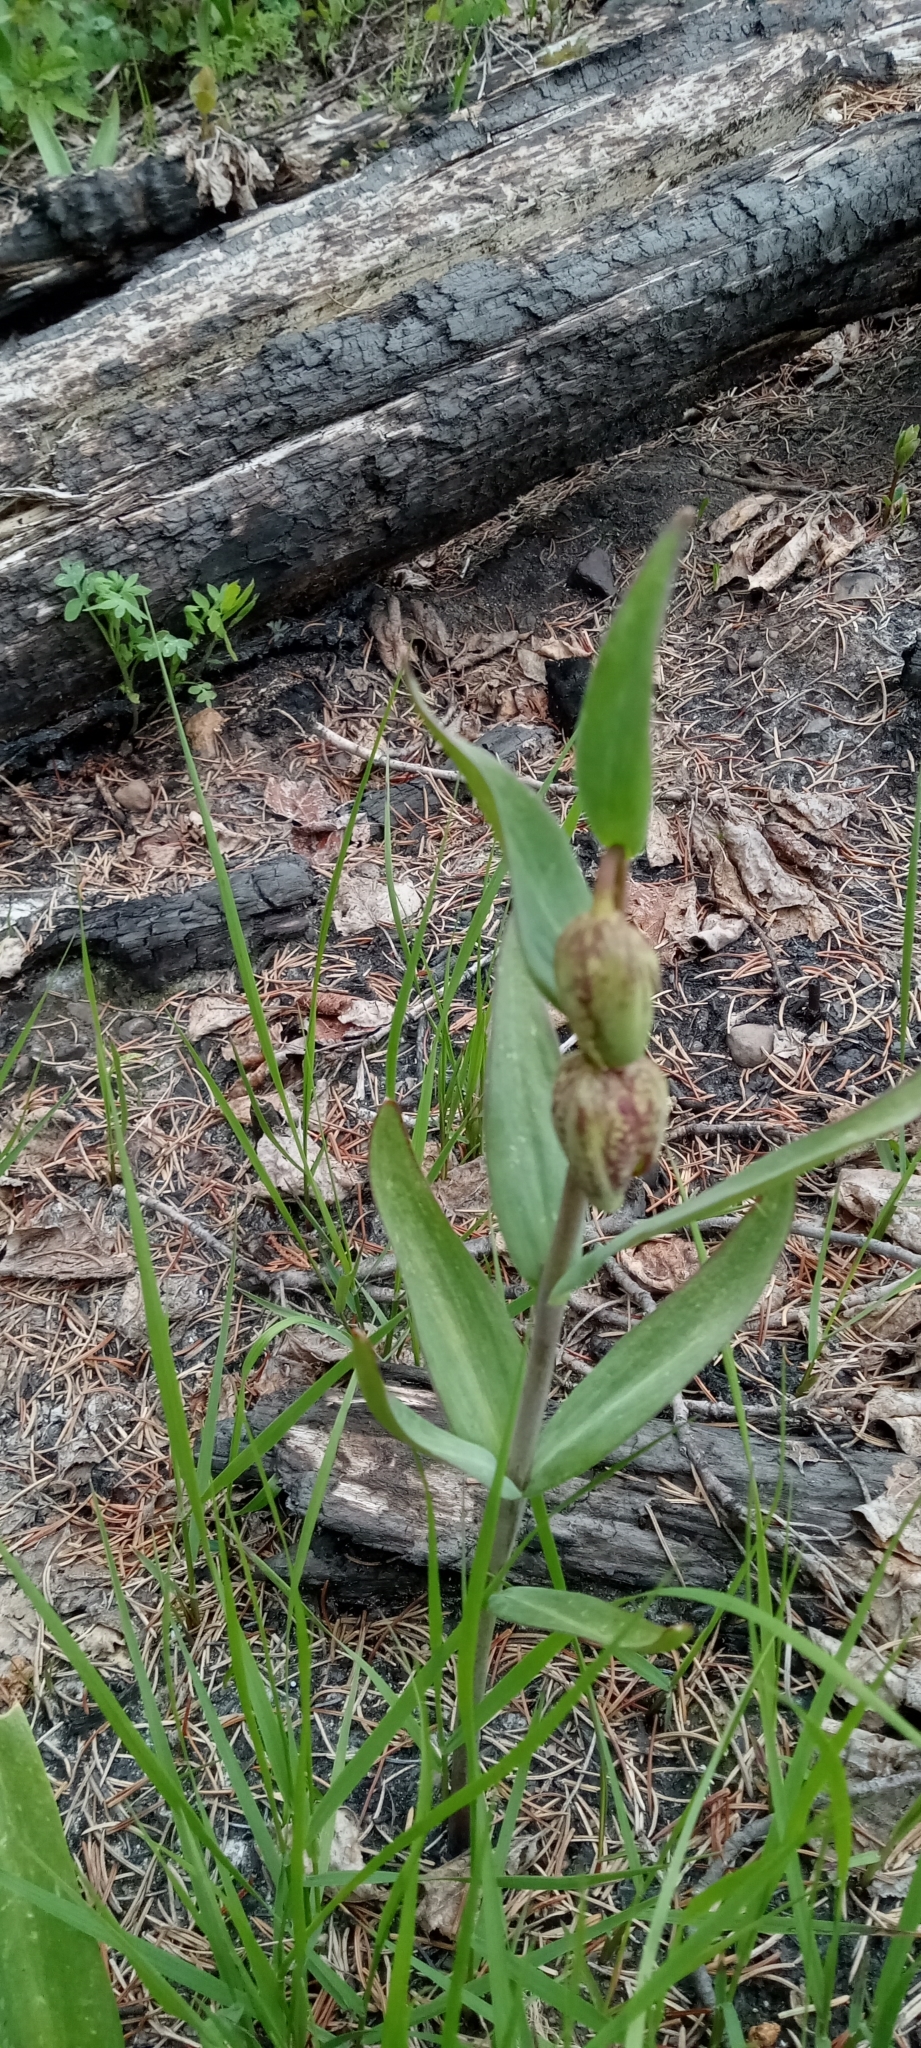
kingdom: Plantae
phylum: Tracheophyta
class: Liliopsida
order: Liliales
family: Liliaceae
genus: Fritillaria
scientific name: Fritillaria affinis
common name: Ojai fritillary
